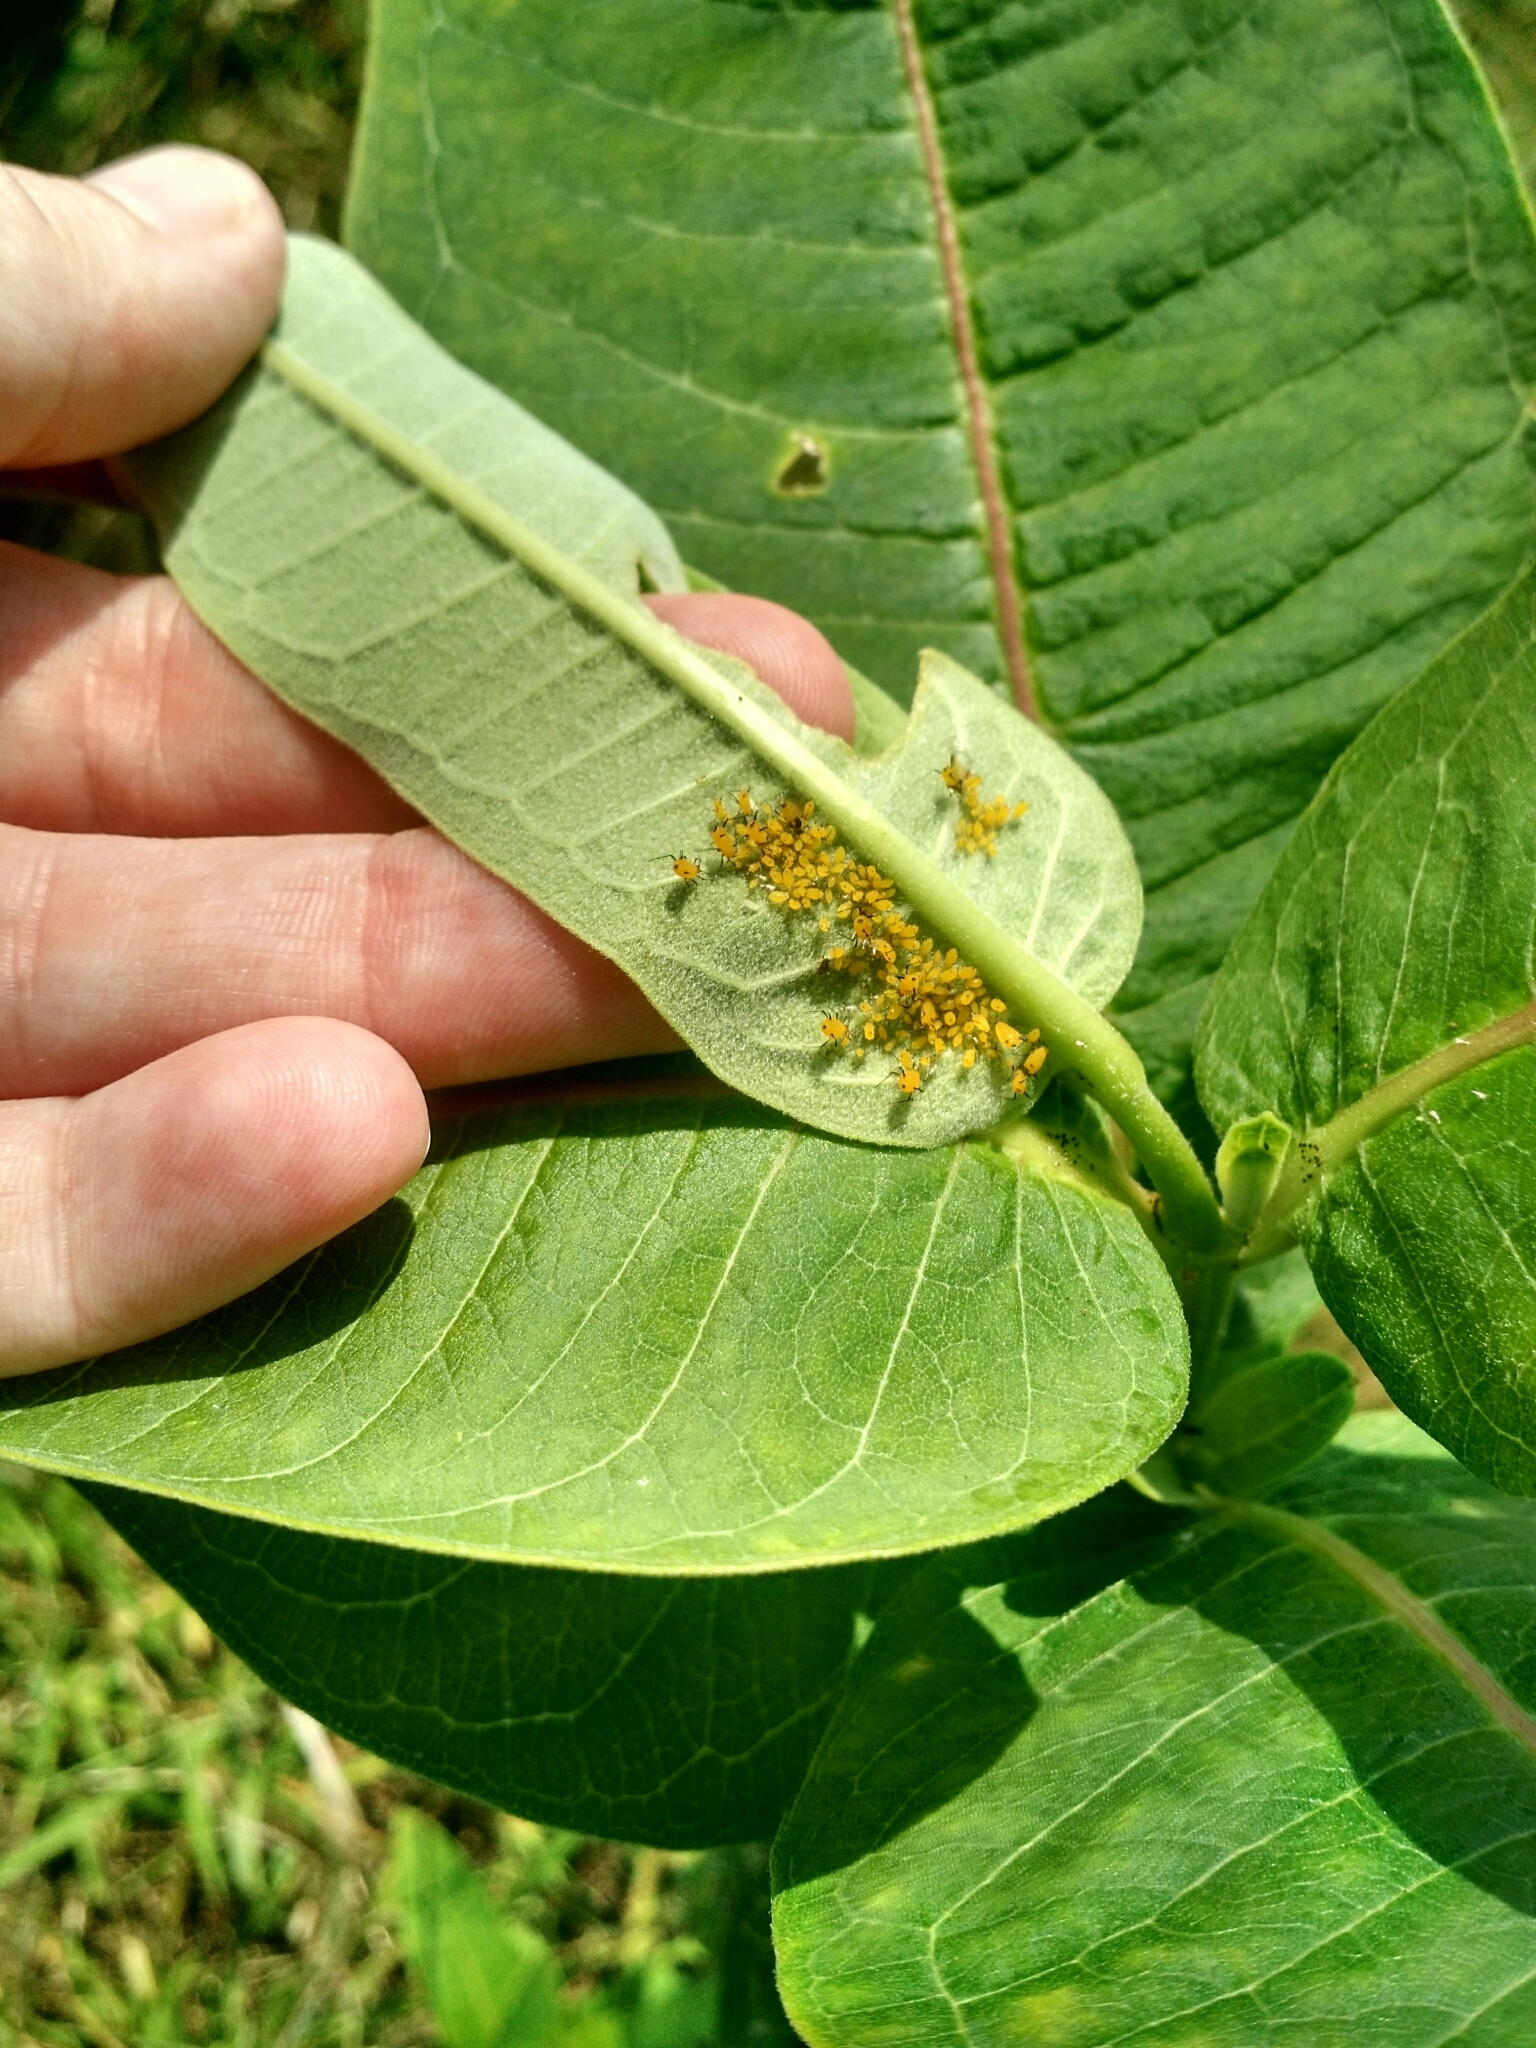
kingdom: Animalia
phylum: Arthropoda
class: Insecta
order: Hemiptera
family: Aphididae
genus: Aphis
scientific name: Aphis nerii
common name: Oleander aphid
